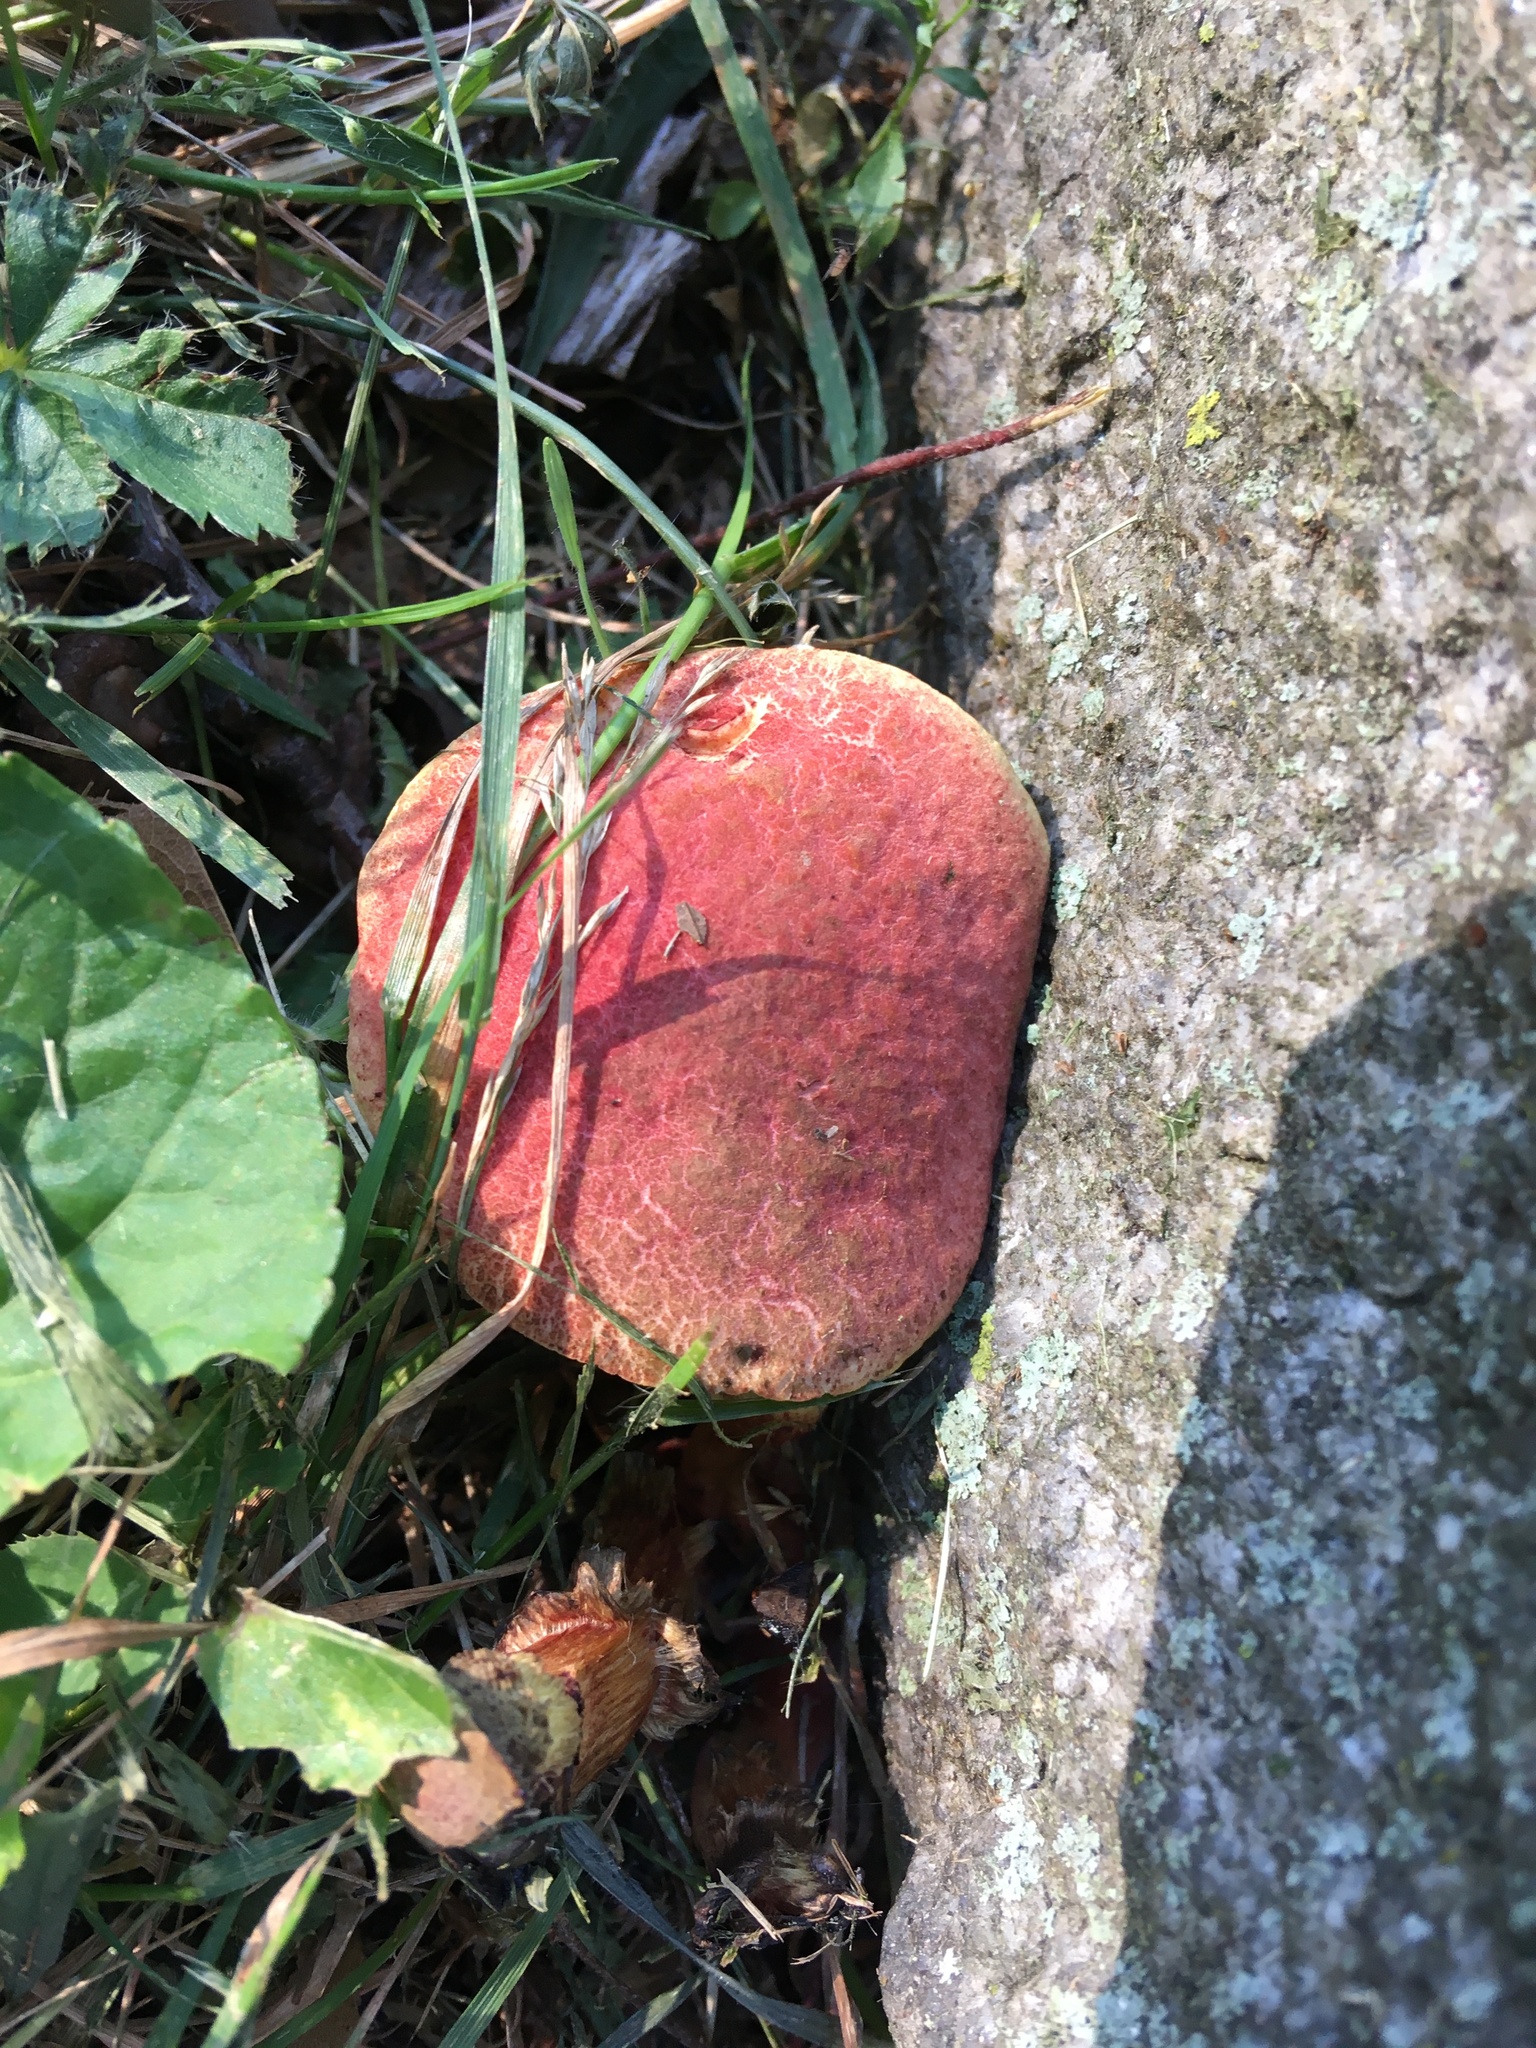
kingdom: Fungi
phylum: Basidiomycota
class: Agaricomycetes
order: Boletales
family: Boletaceae
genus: Hortiboletus
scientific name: Hortiboletus rubellus
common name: Ruby bolete
